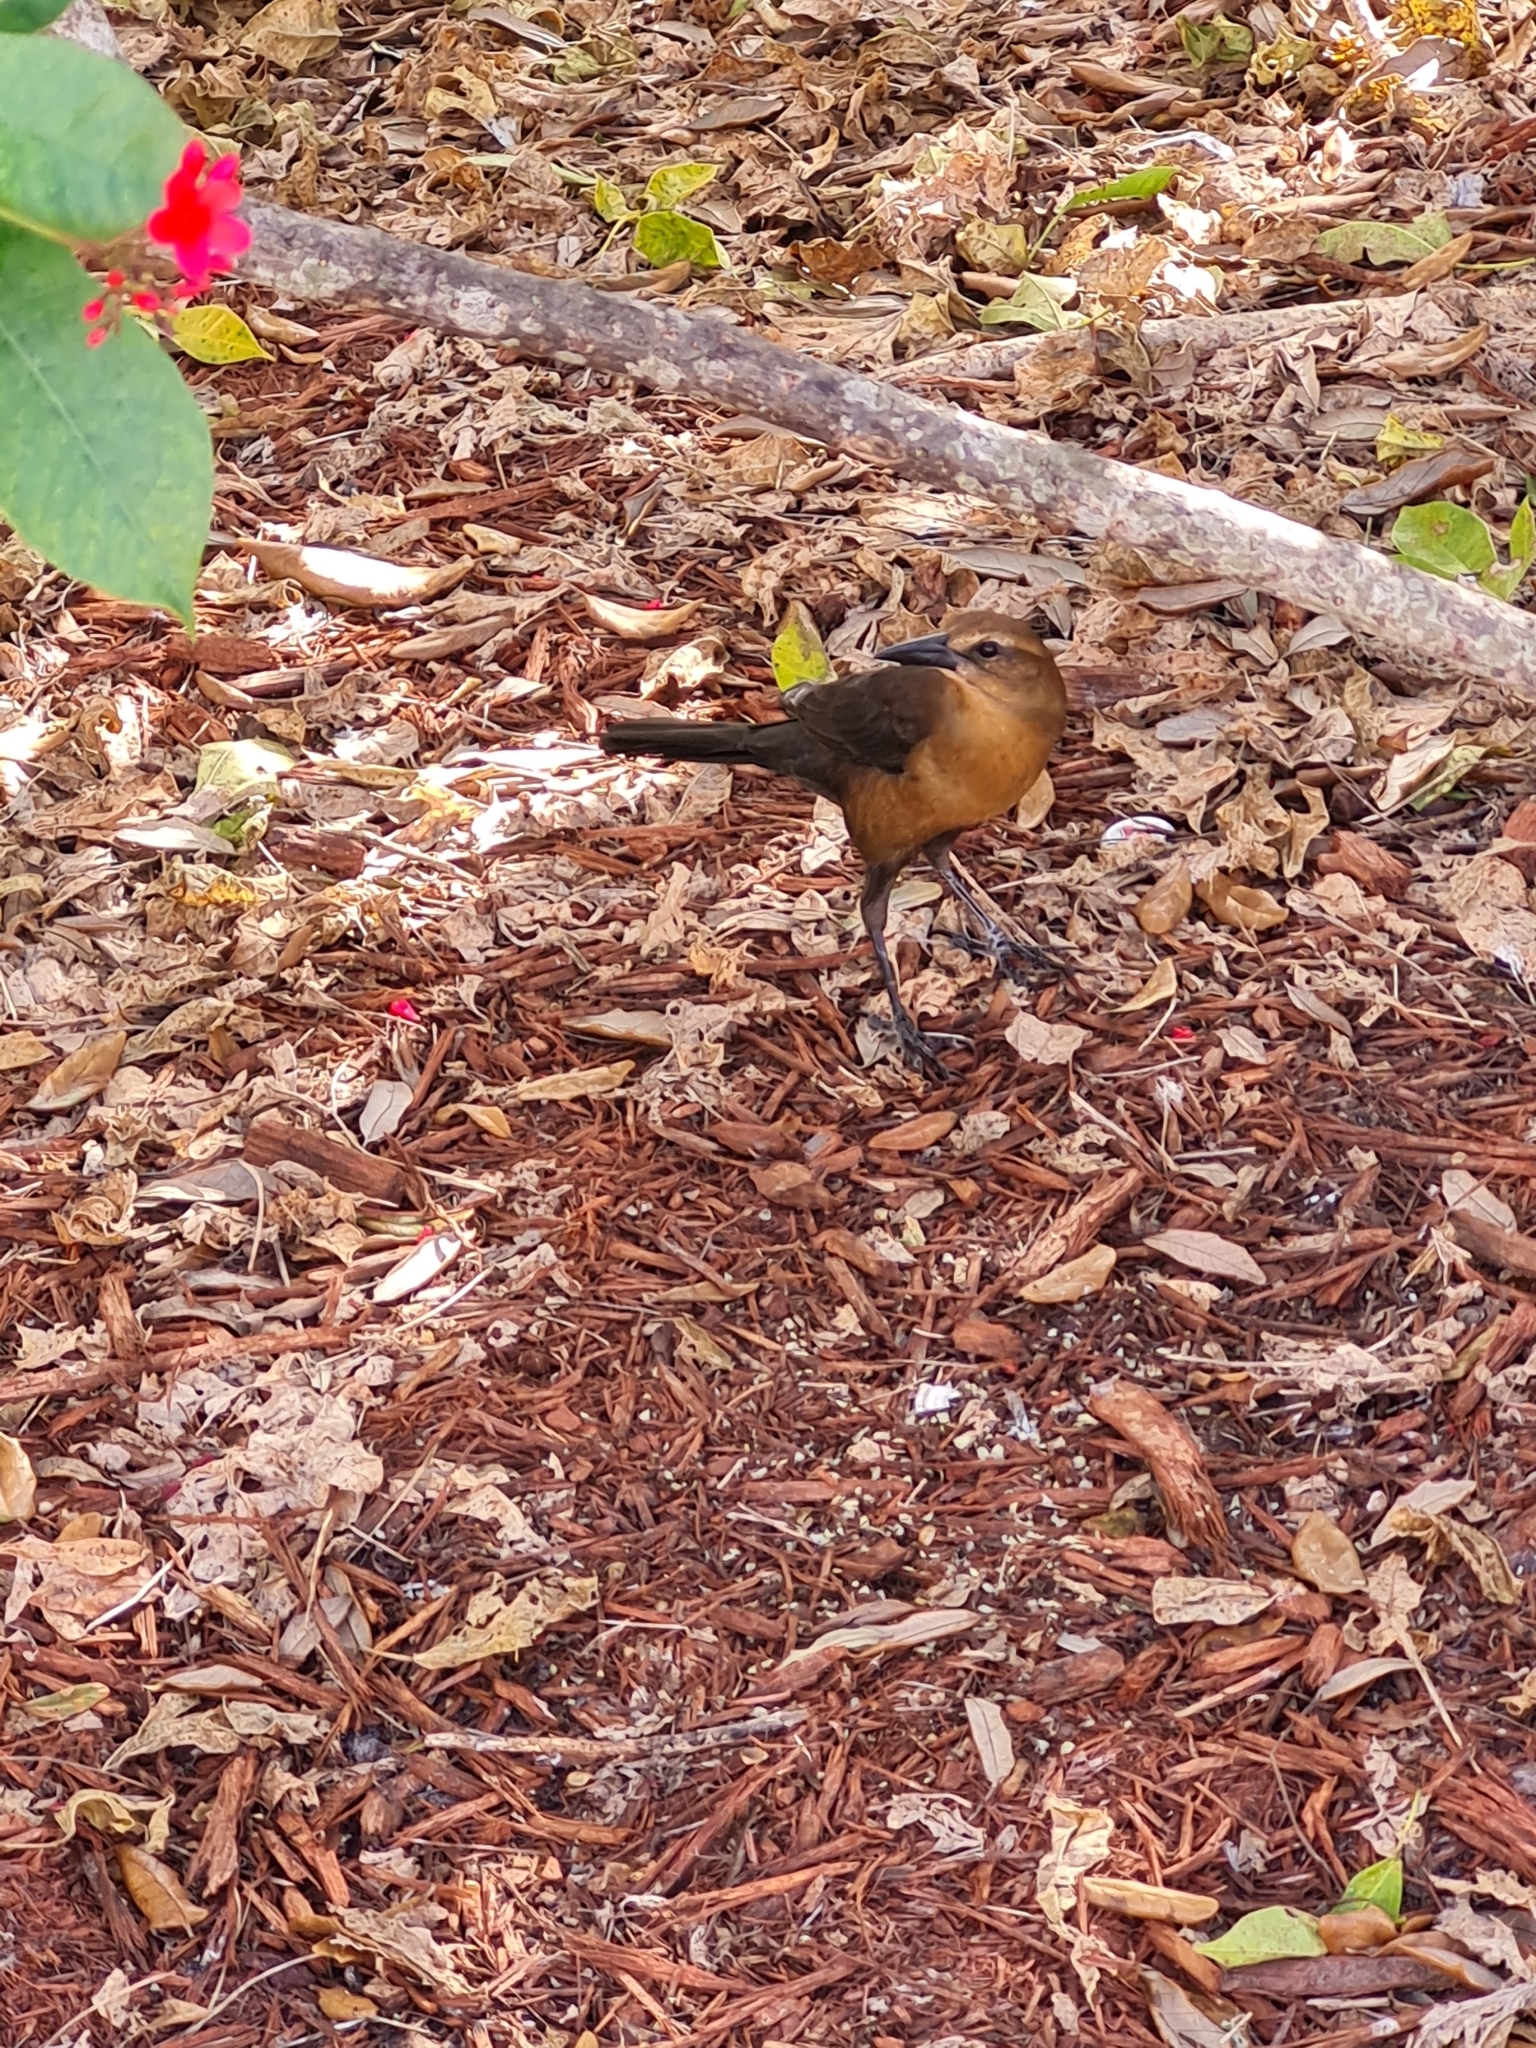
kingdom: Animalia
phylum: Chordata
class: Aves
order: Passeriformes
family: Icteridae
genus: Quiscalus
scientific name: Quiscalus major
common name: Boat-tailed grackle
